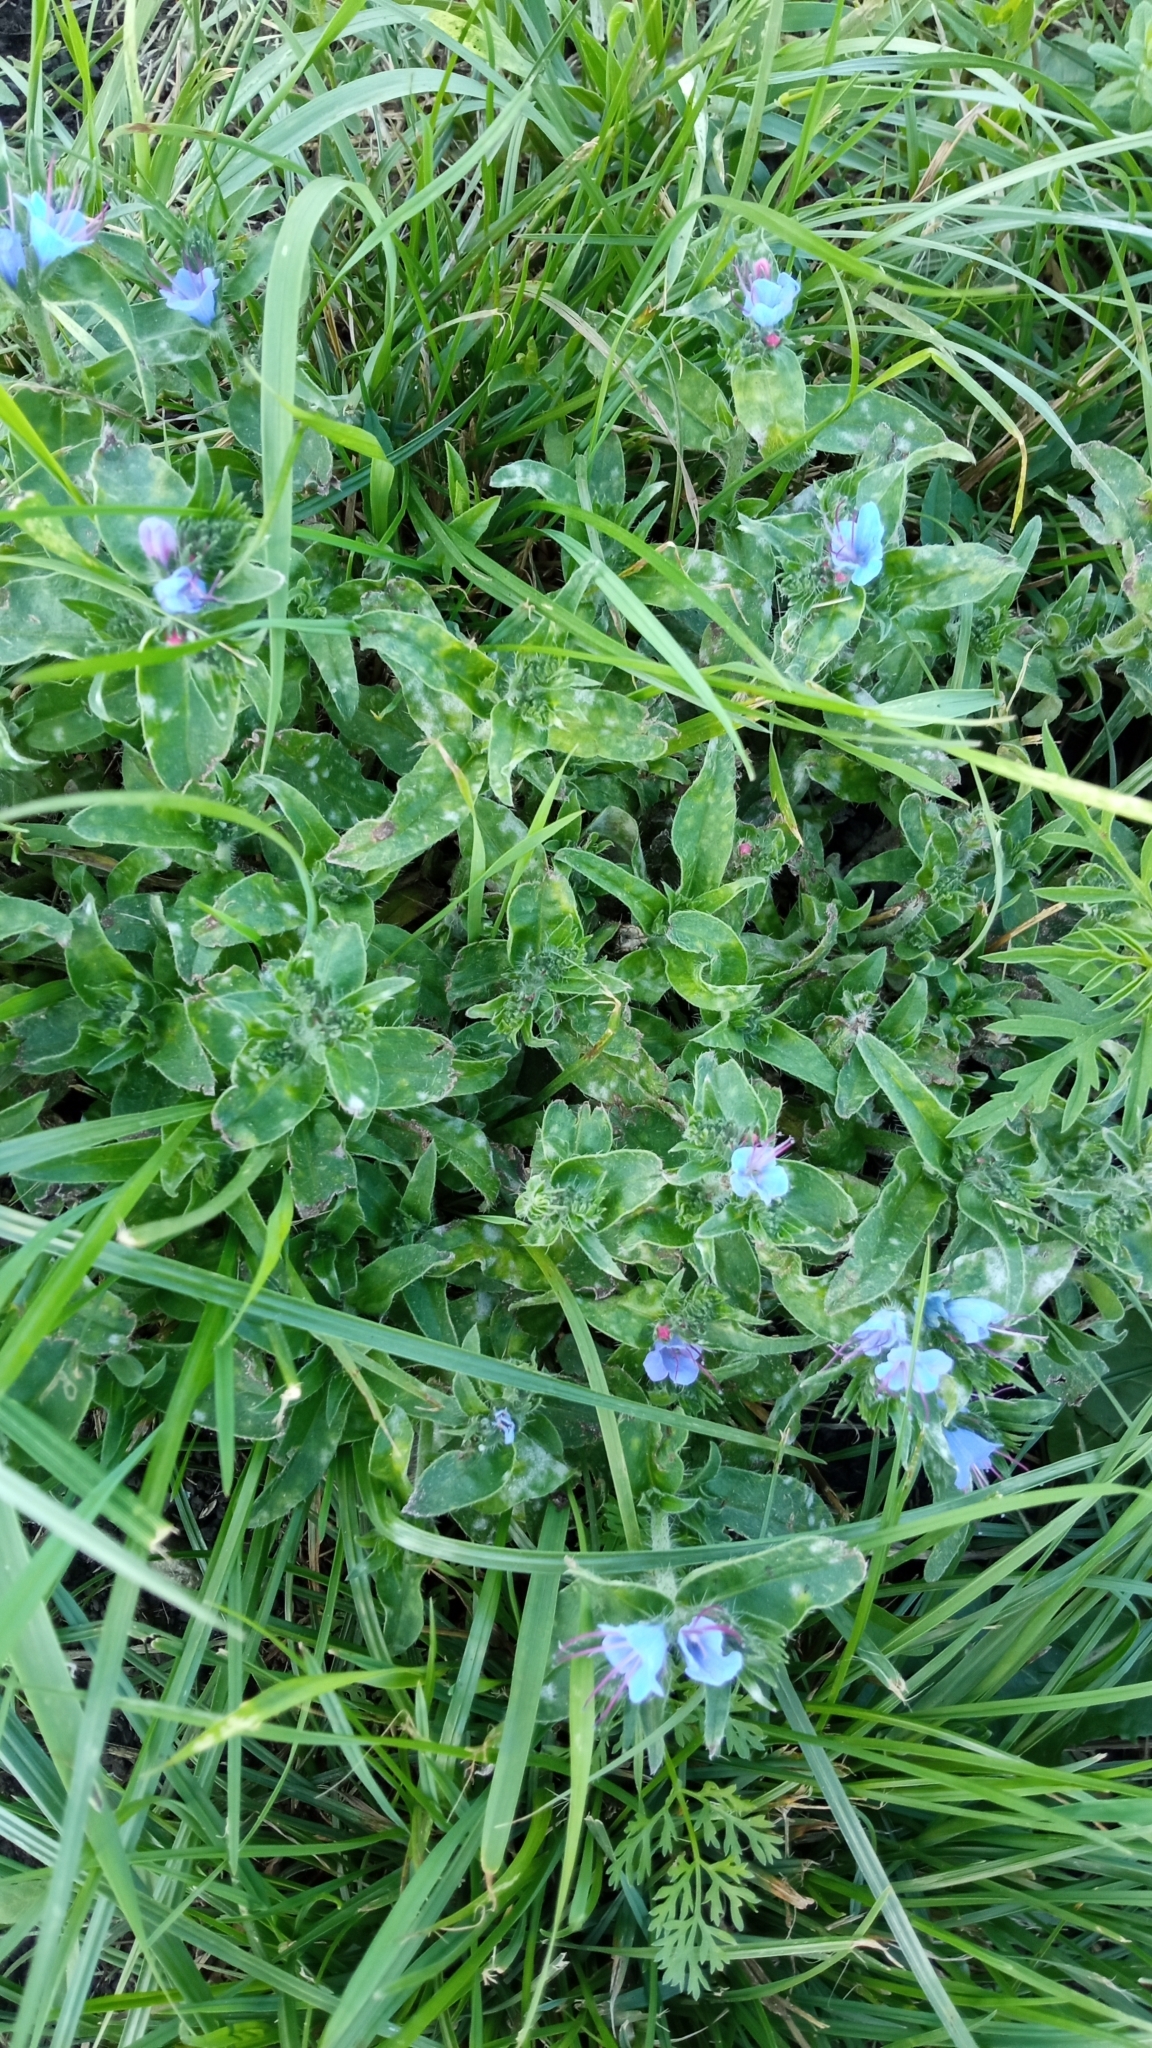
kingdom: Plantae
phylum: Tracheophyta
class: Magnoliopsida
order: Boraginales
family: Boraginaceae
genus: Echium
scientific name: Echium vulgare
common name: Common viper's bugloss
